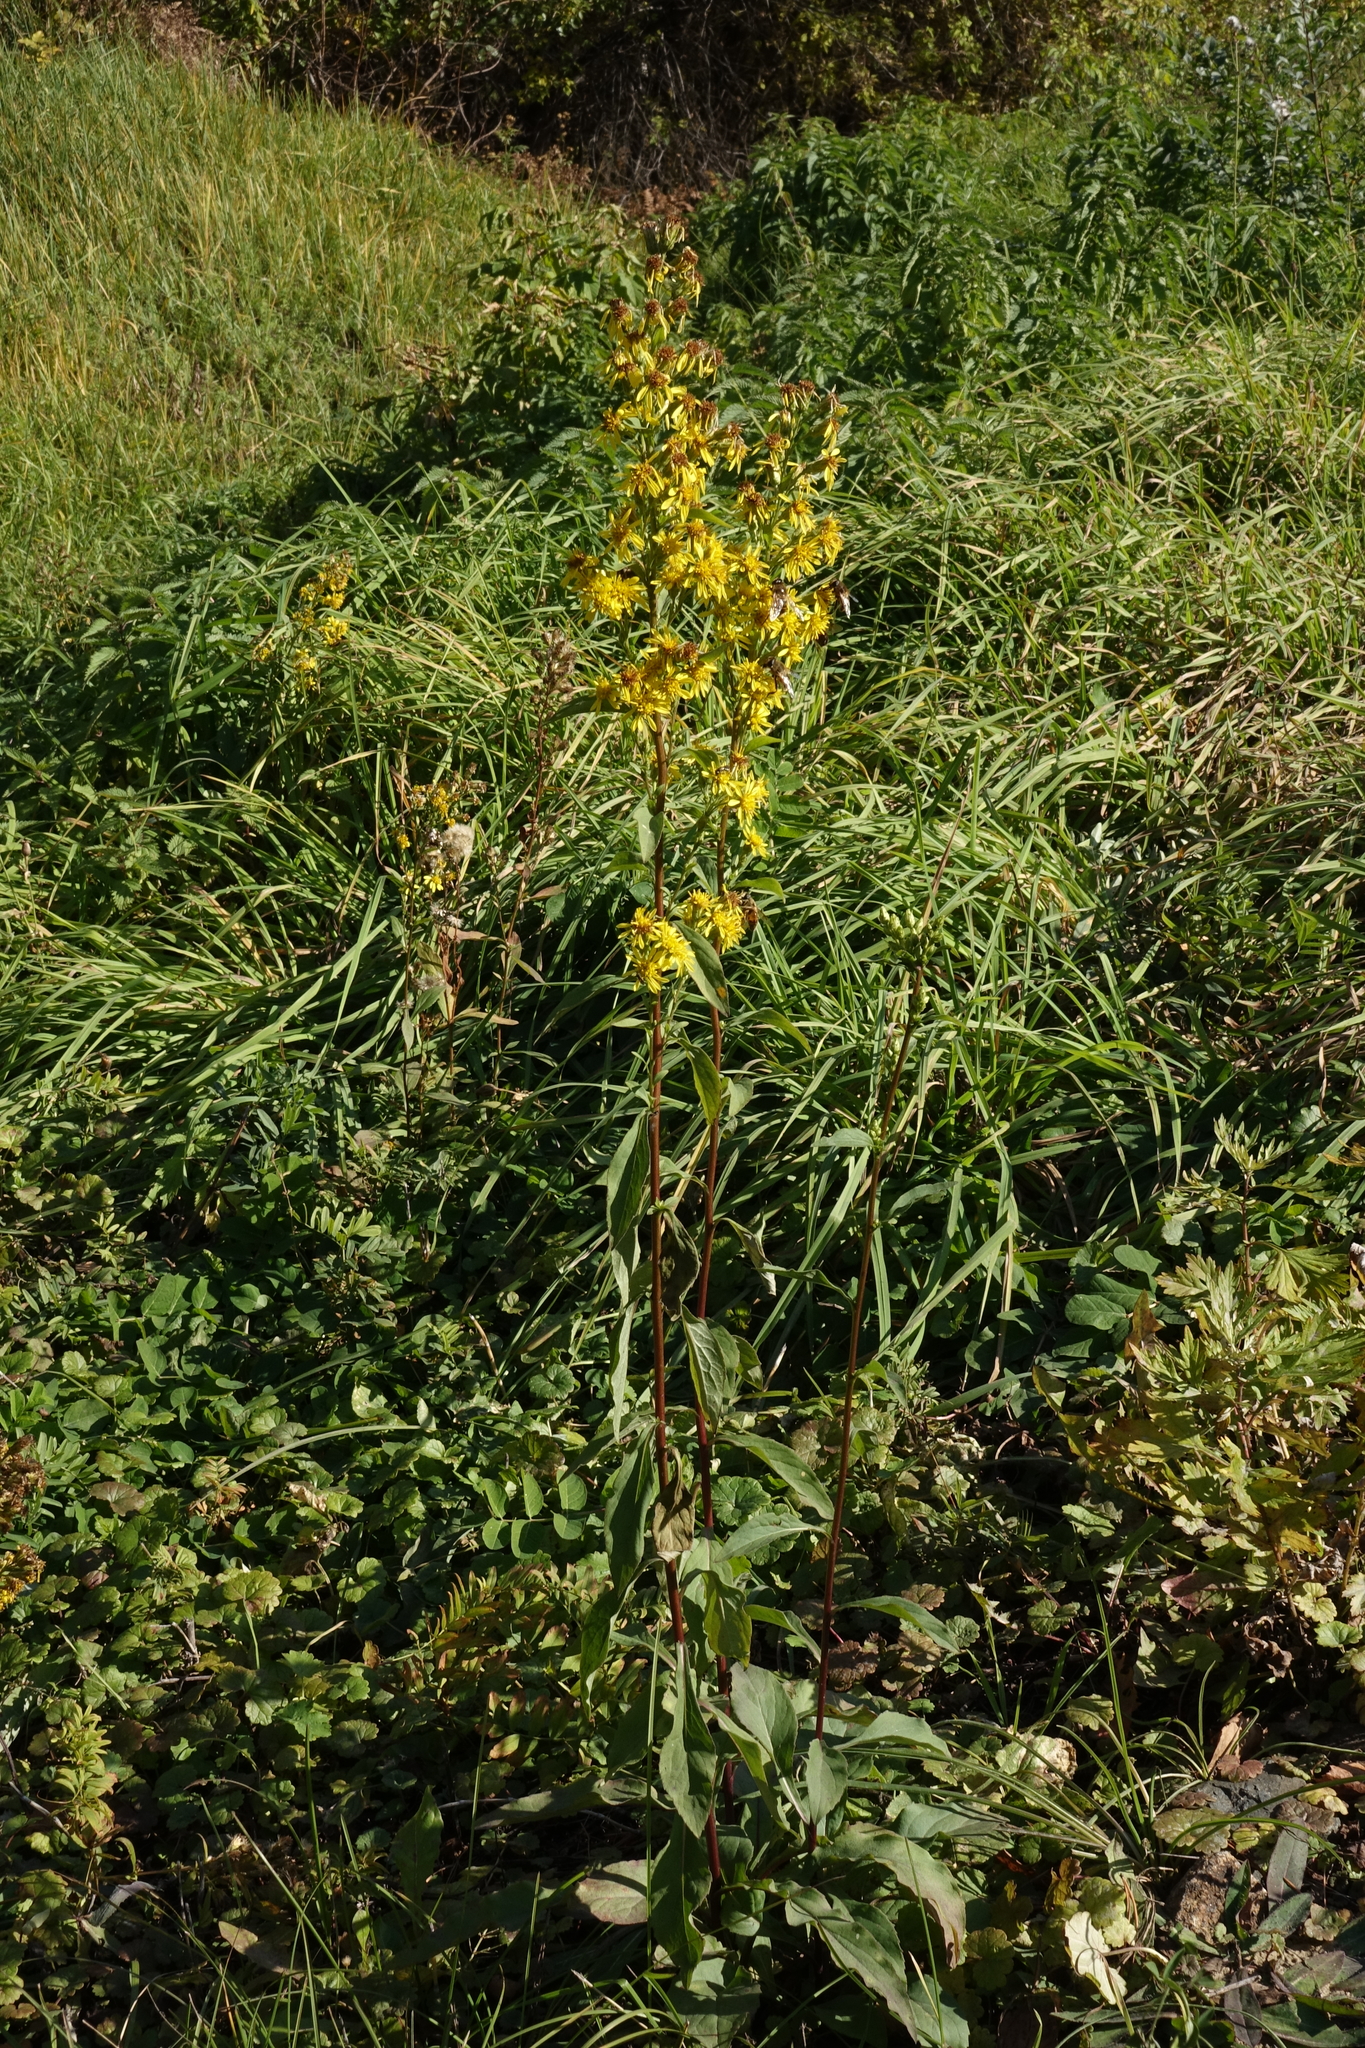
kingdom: Plantae
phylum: Tracheophyta
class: Magnoliopsida
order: Asterales
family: Asteraceae
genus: Solidago
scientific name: Solidago virgaurea
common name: Goldenrod
